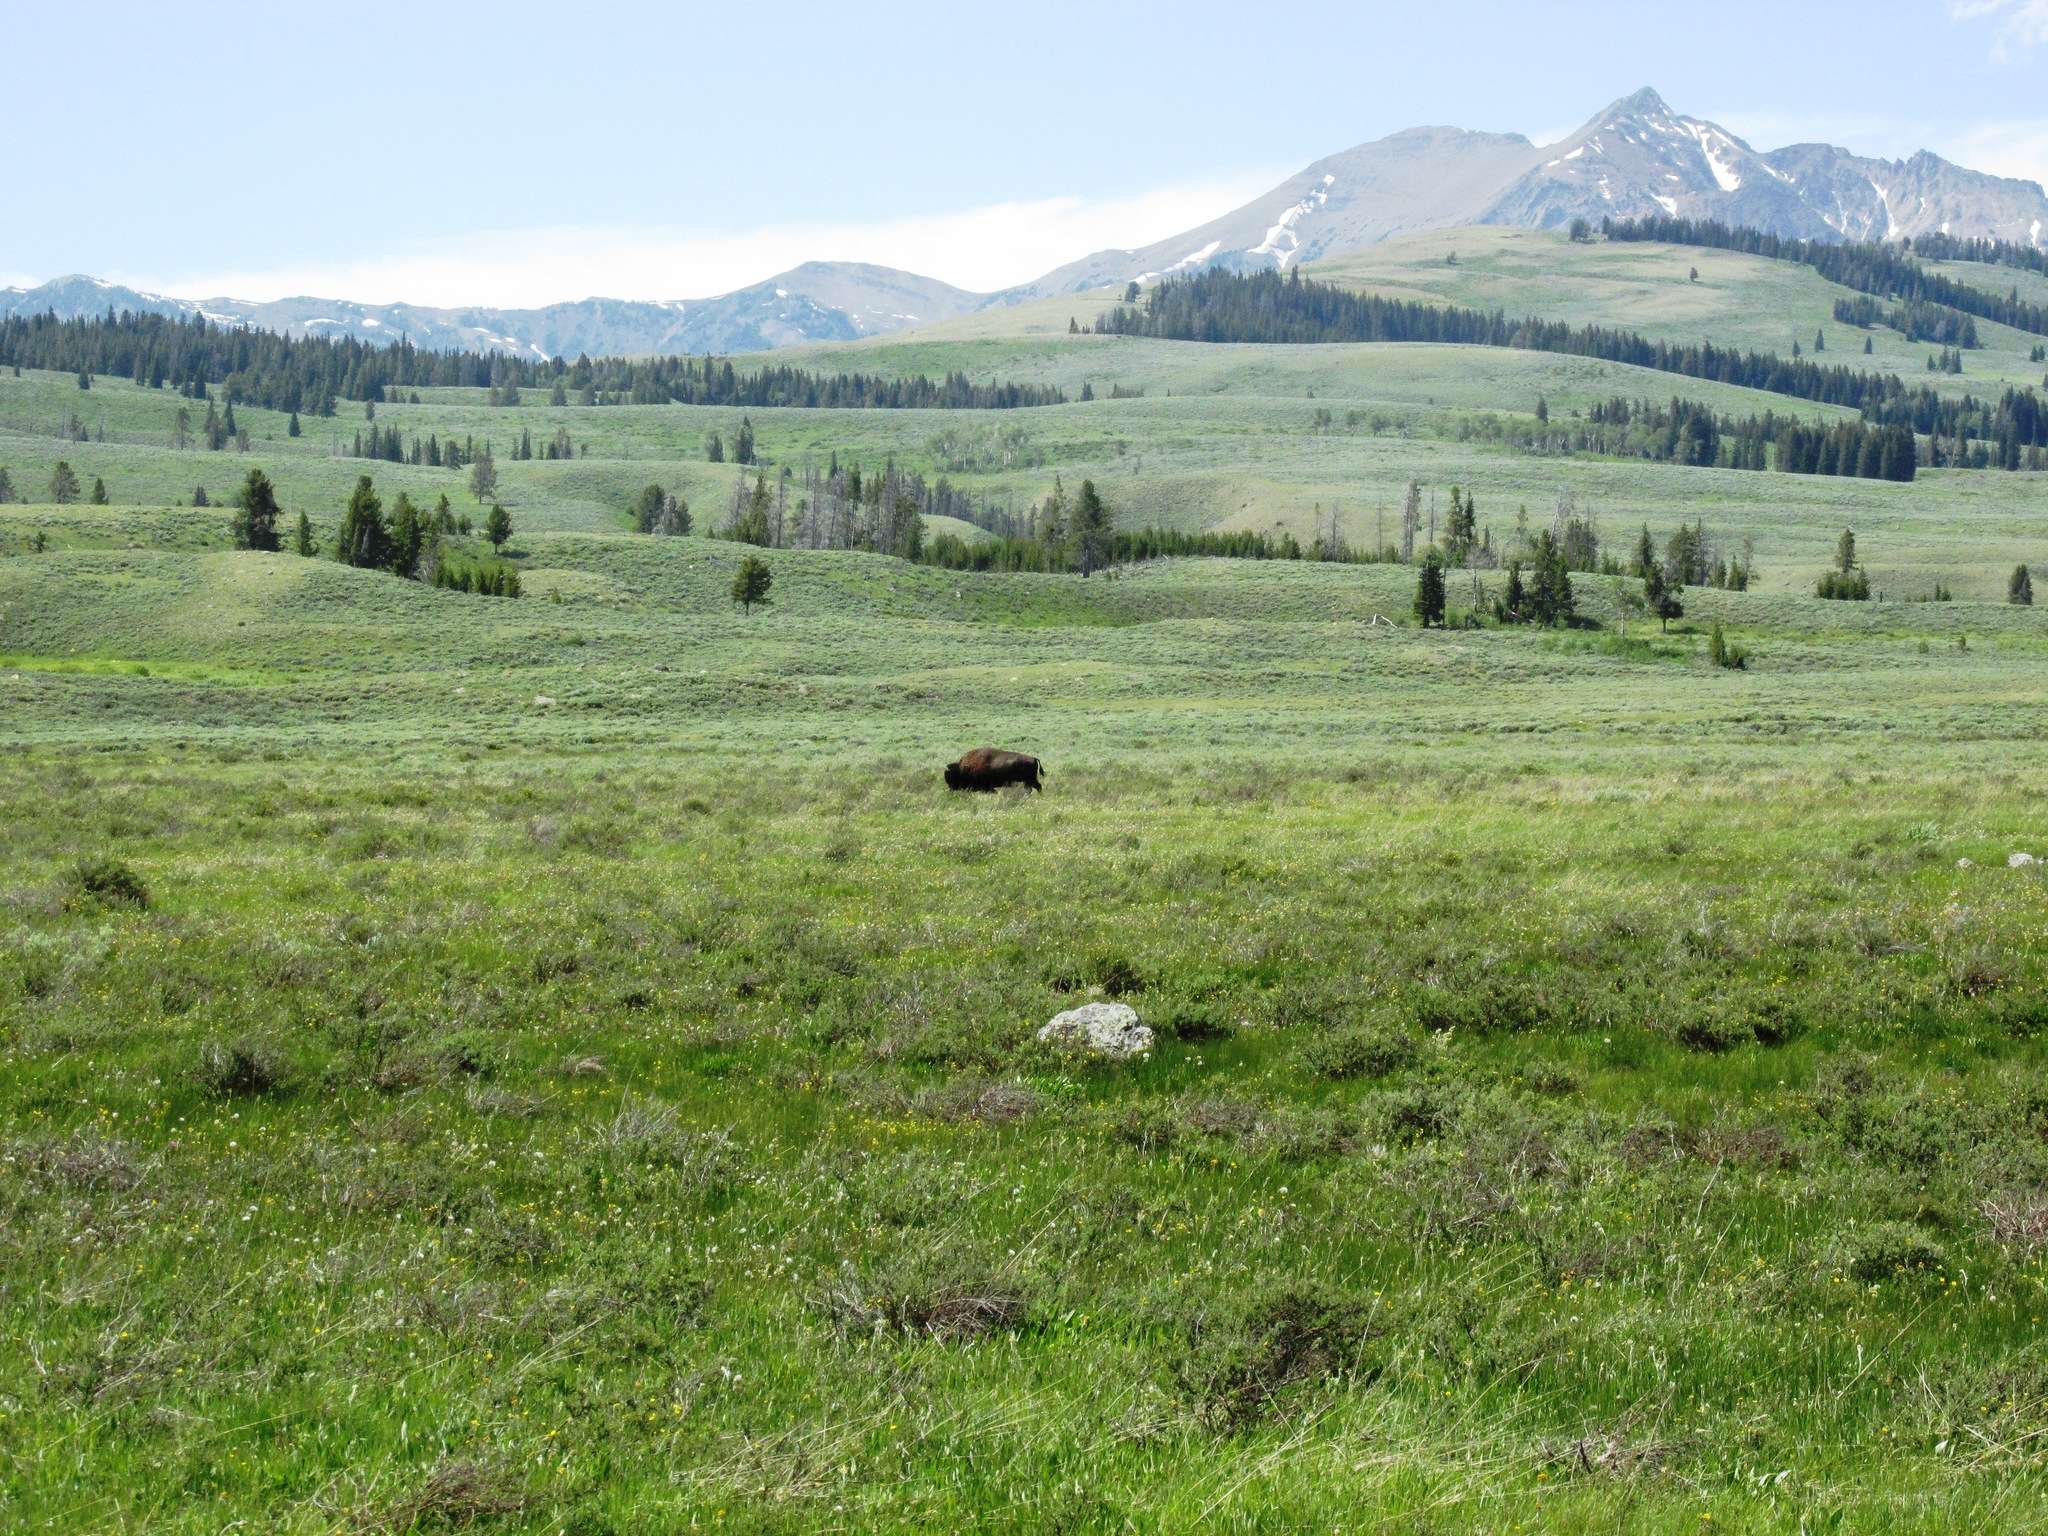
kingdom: Animalia
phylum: Chordata
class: Mammalia
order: Artiodactyla
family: Bovidae
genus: Bison
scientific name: Bison bison
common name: American bison
